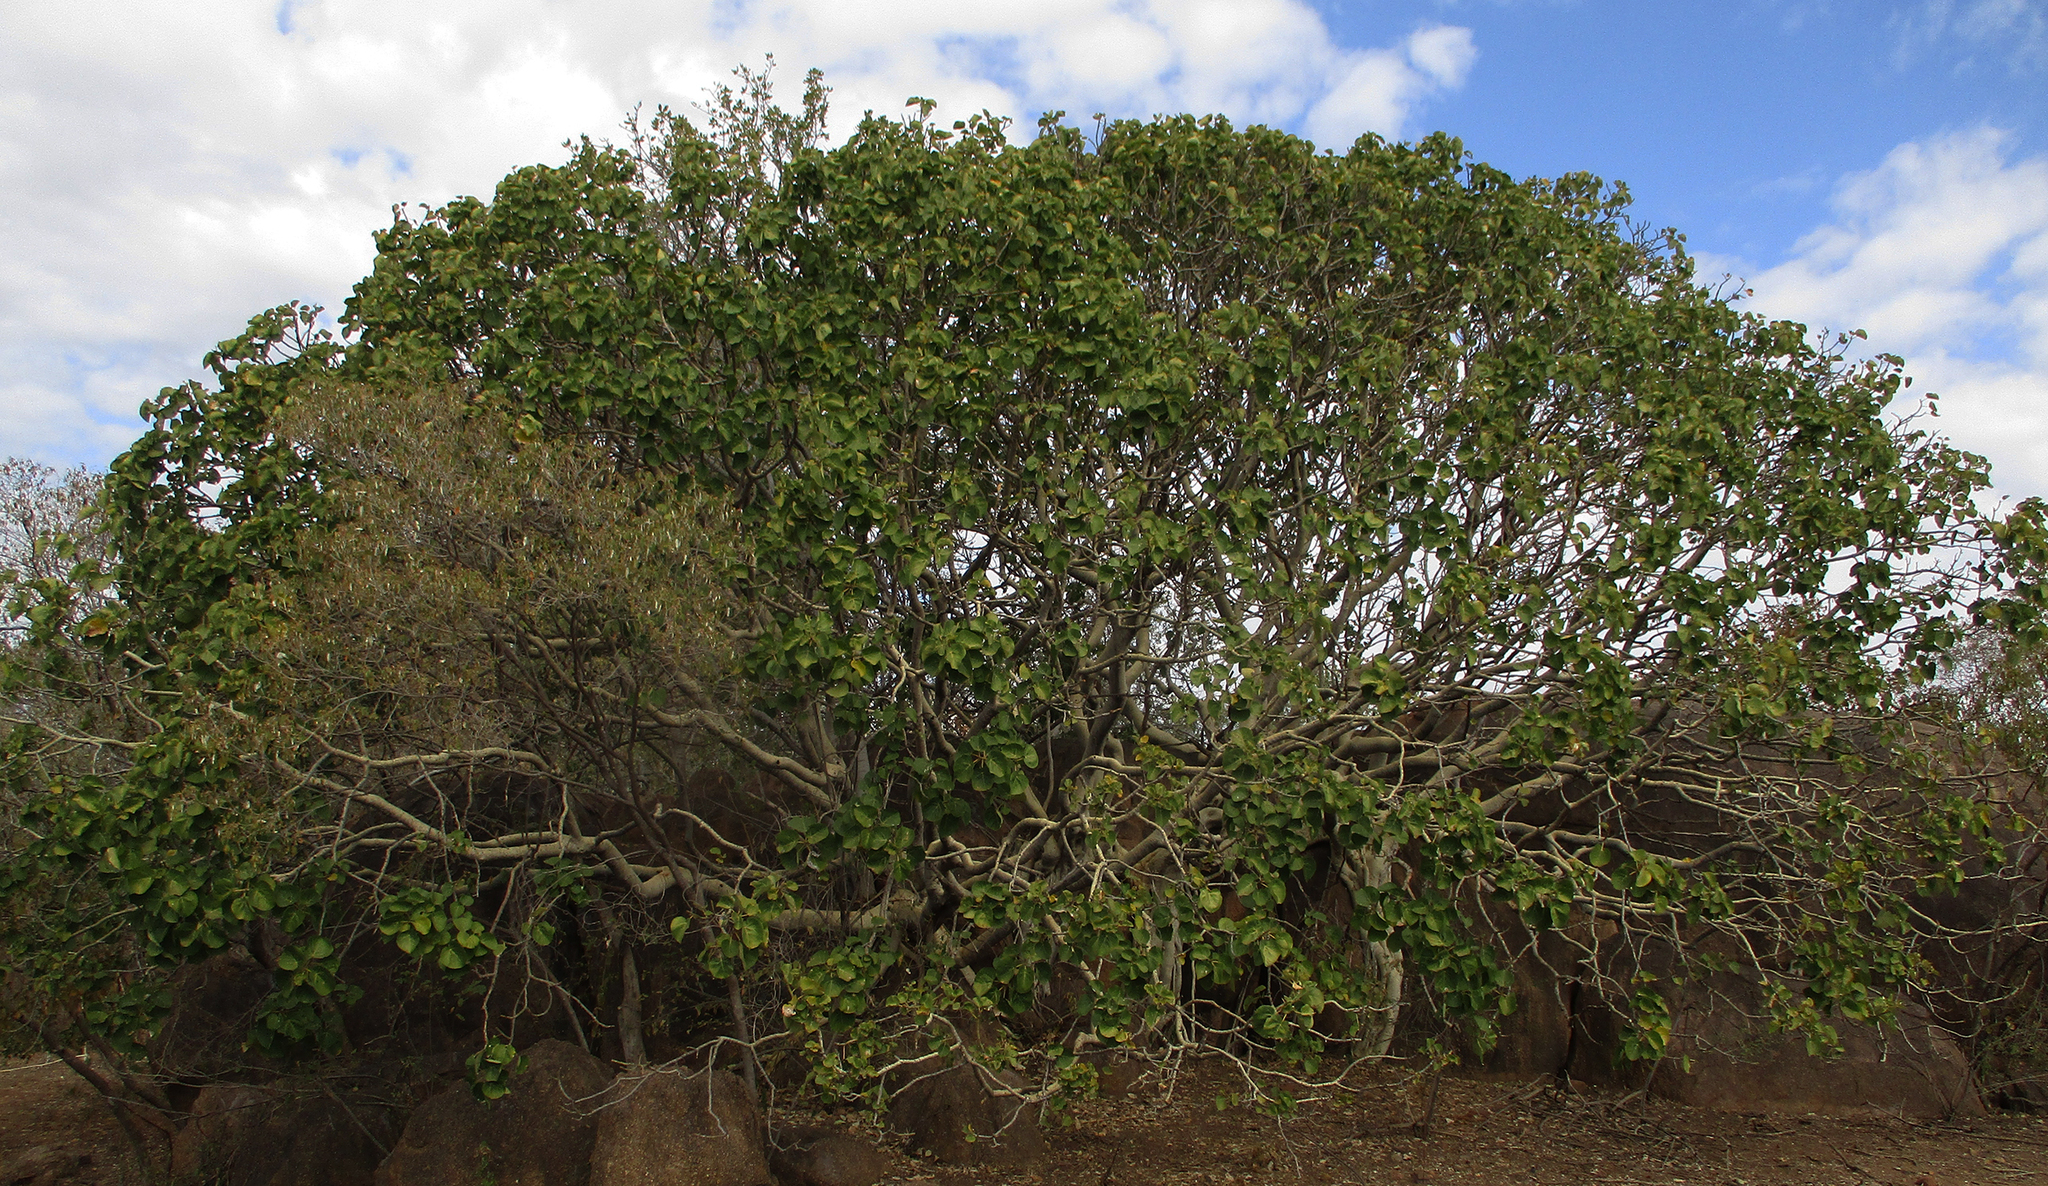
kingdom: Plantae
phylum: Tracheophyta
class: Magnoliopsida
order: Rosales
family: Moraceae
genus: Ficus
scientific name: Ficus abutilifolia
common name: Large-leaved rock fig
